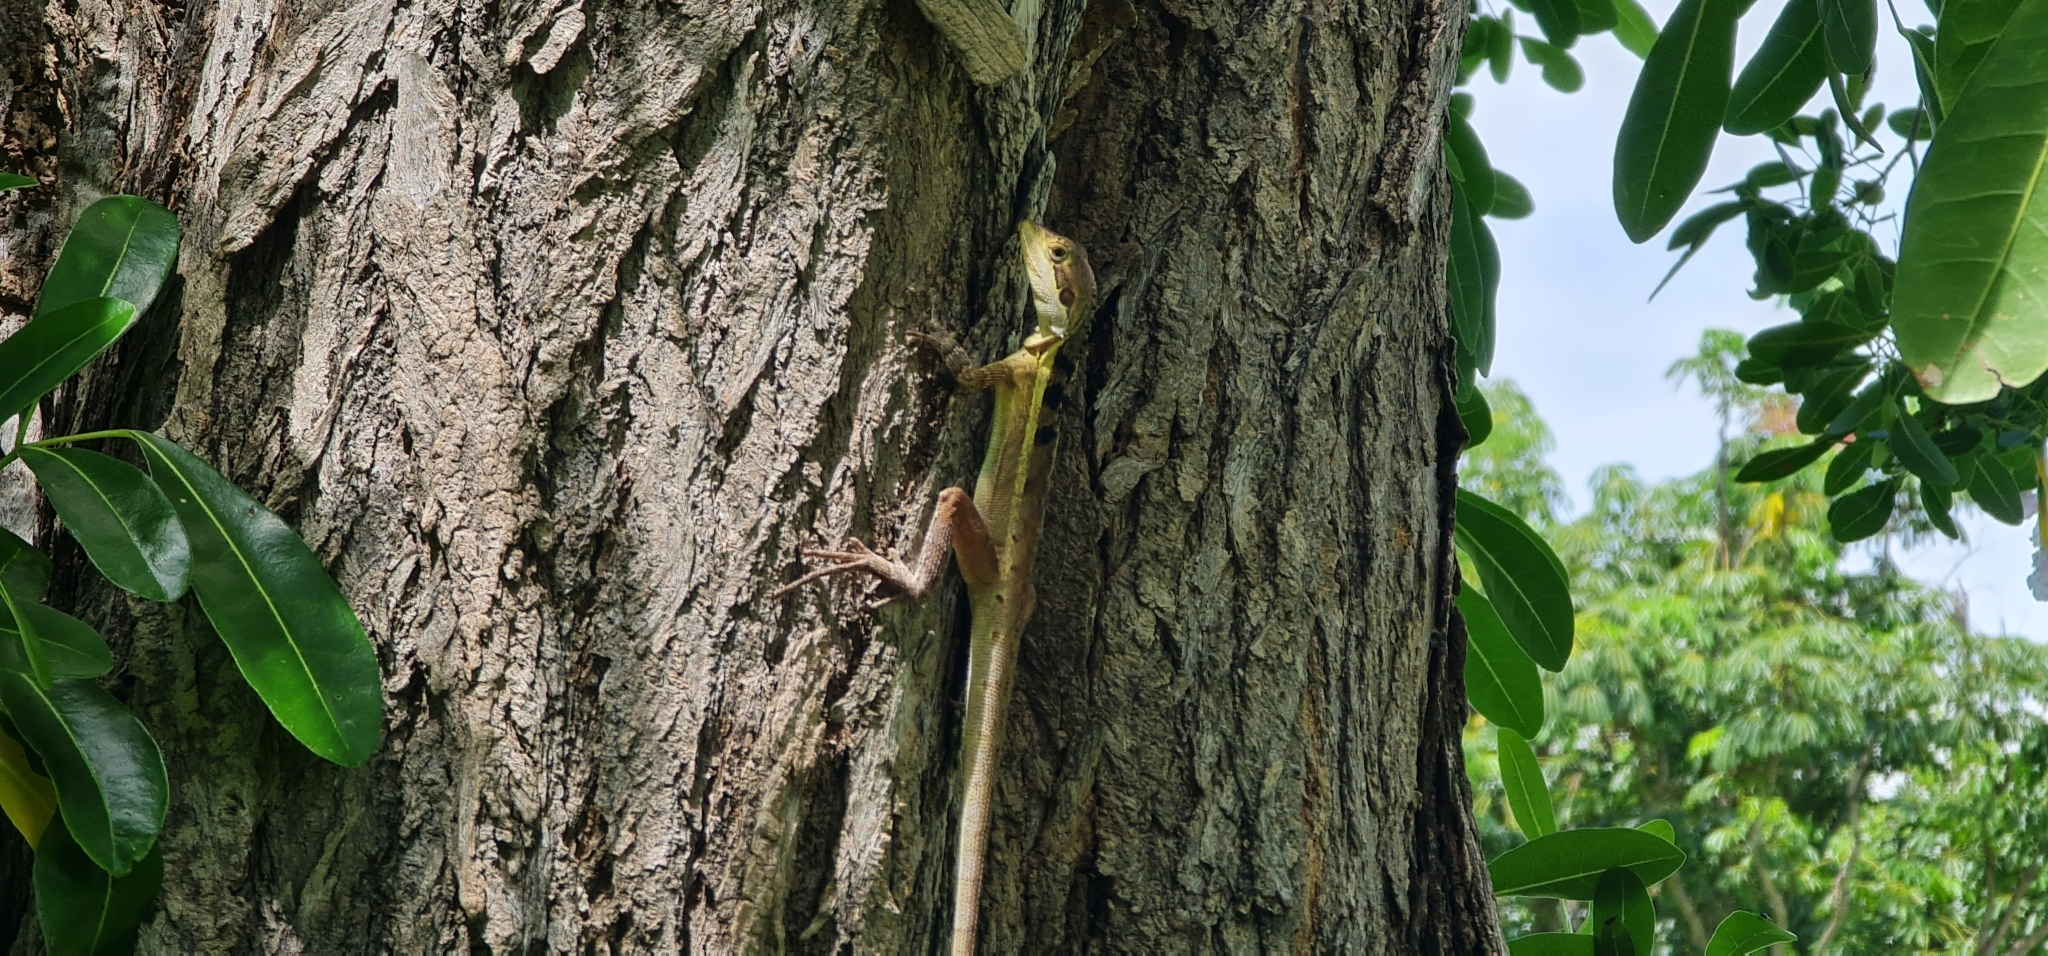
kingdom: Animalia
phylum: Chordata
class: Squamata
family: Agamidae
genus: Tropicagama
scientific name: Tropicagama temporalis
